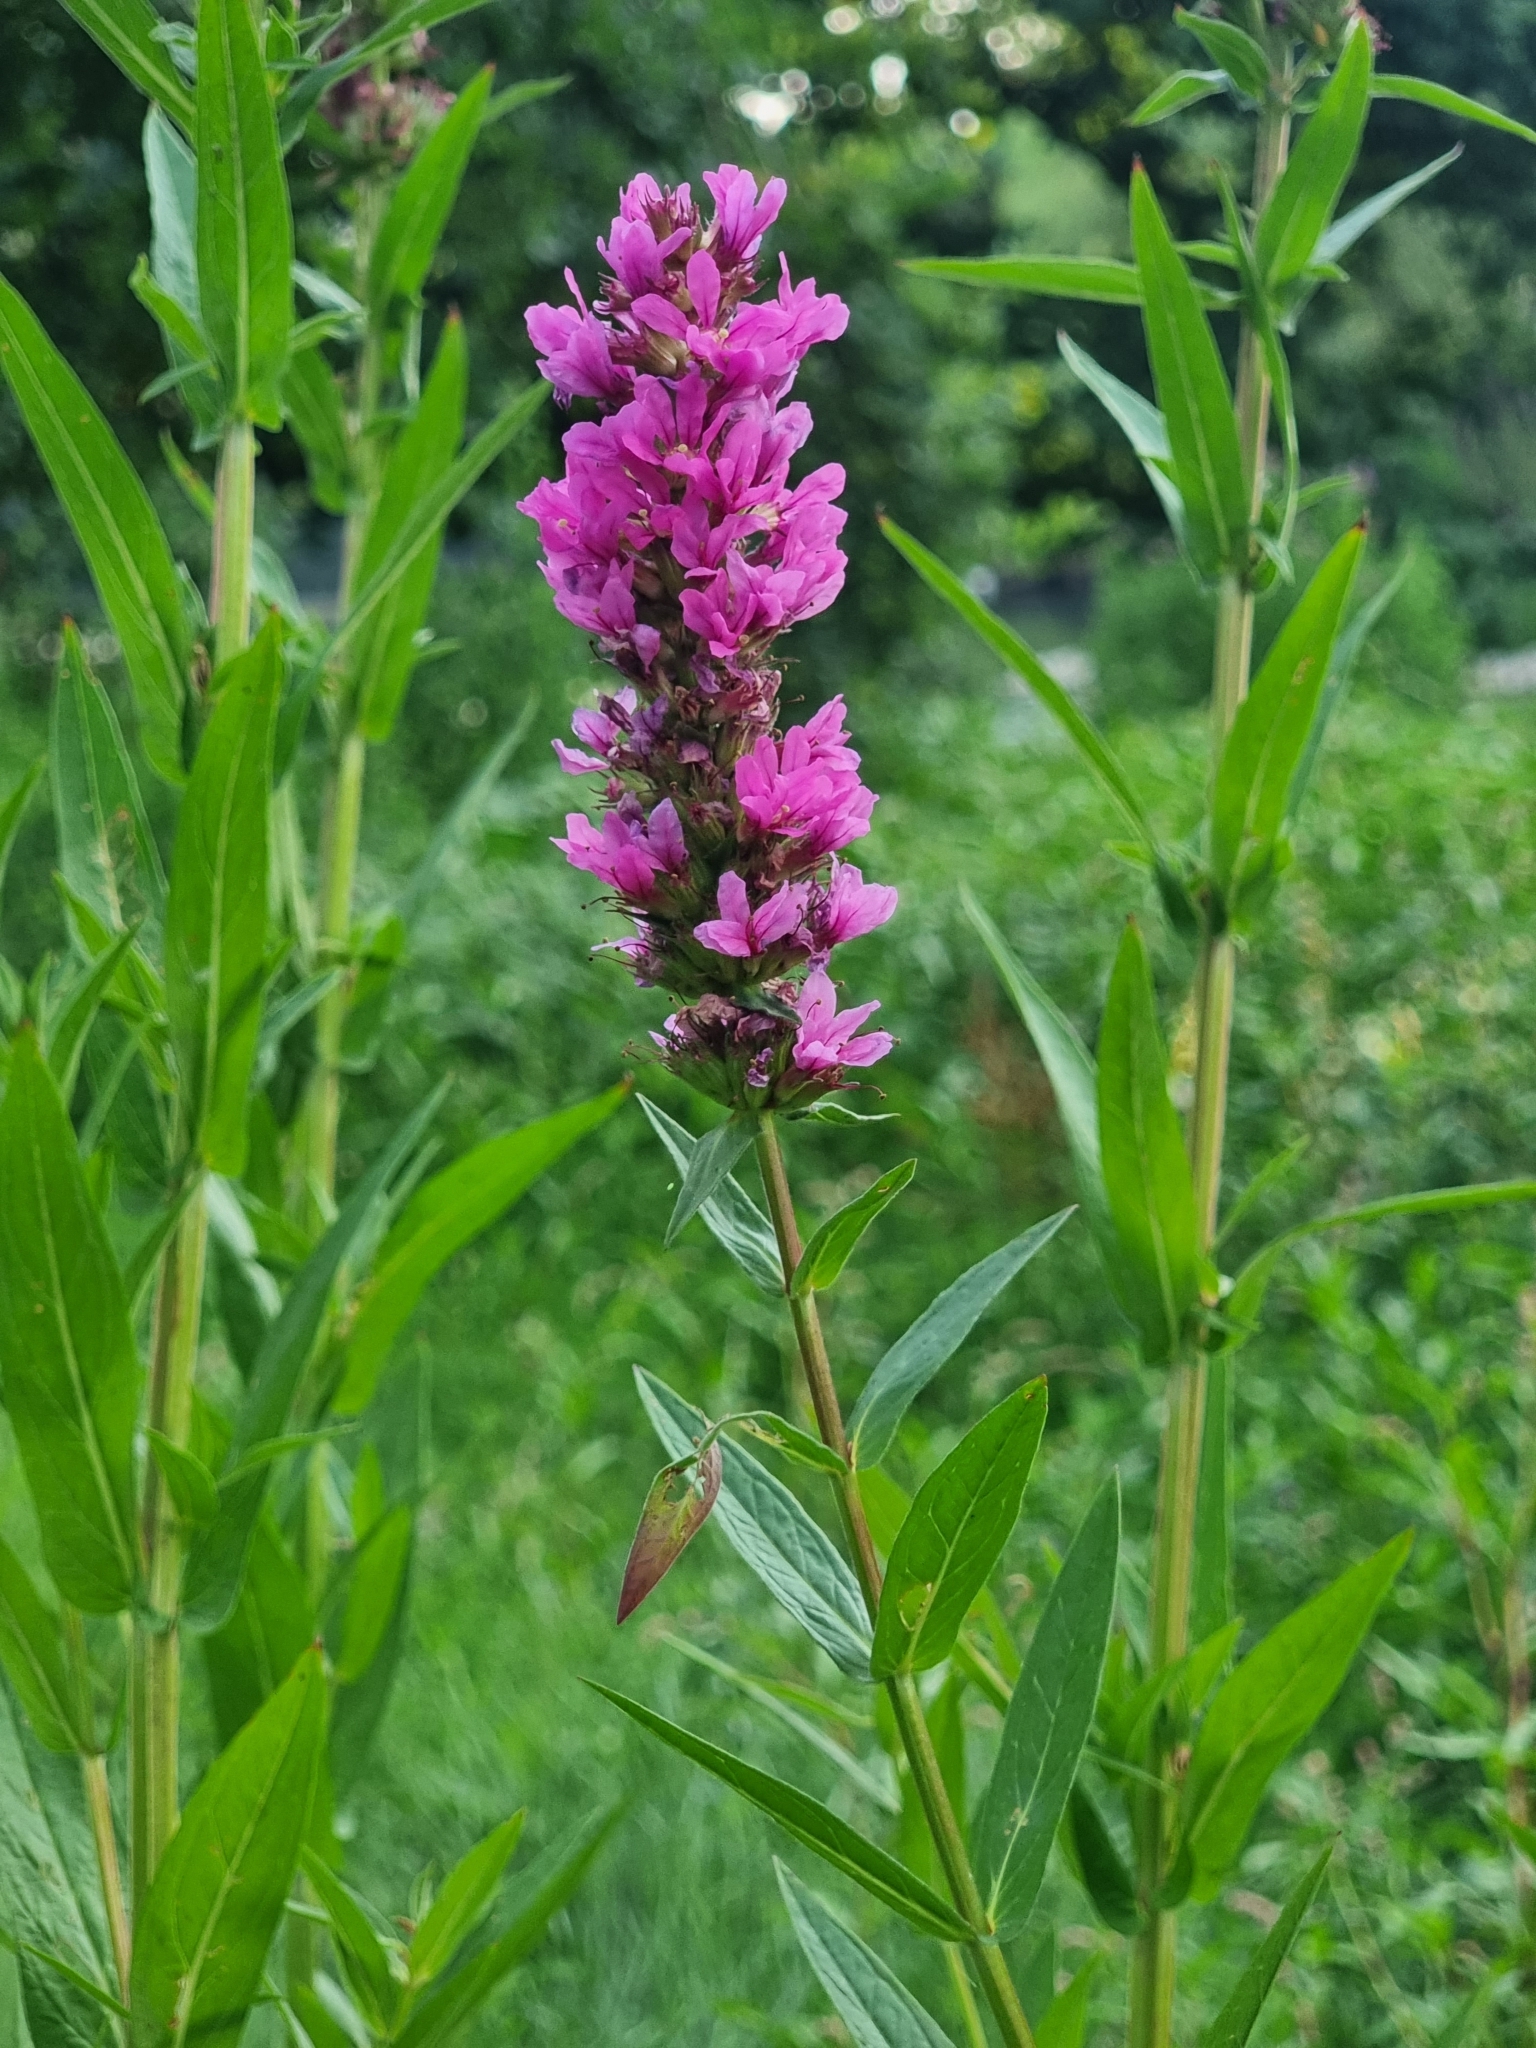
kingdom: Plantae
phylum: Tracheophyta
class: Magnoliopsida
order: Myrtales
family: Lythraceae
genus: Lythrum
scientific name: Lythrum salicaria
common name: Purple loosestrife
